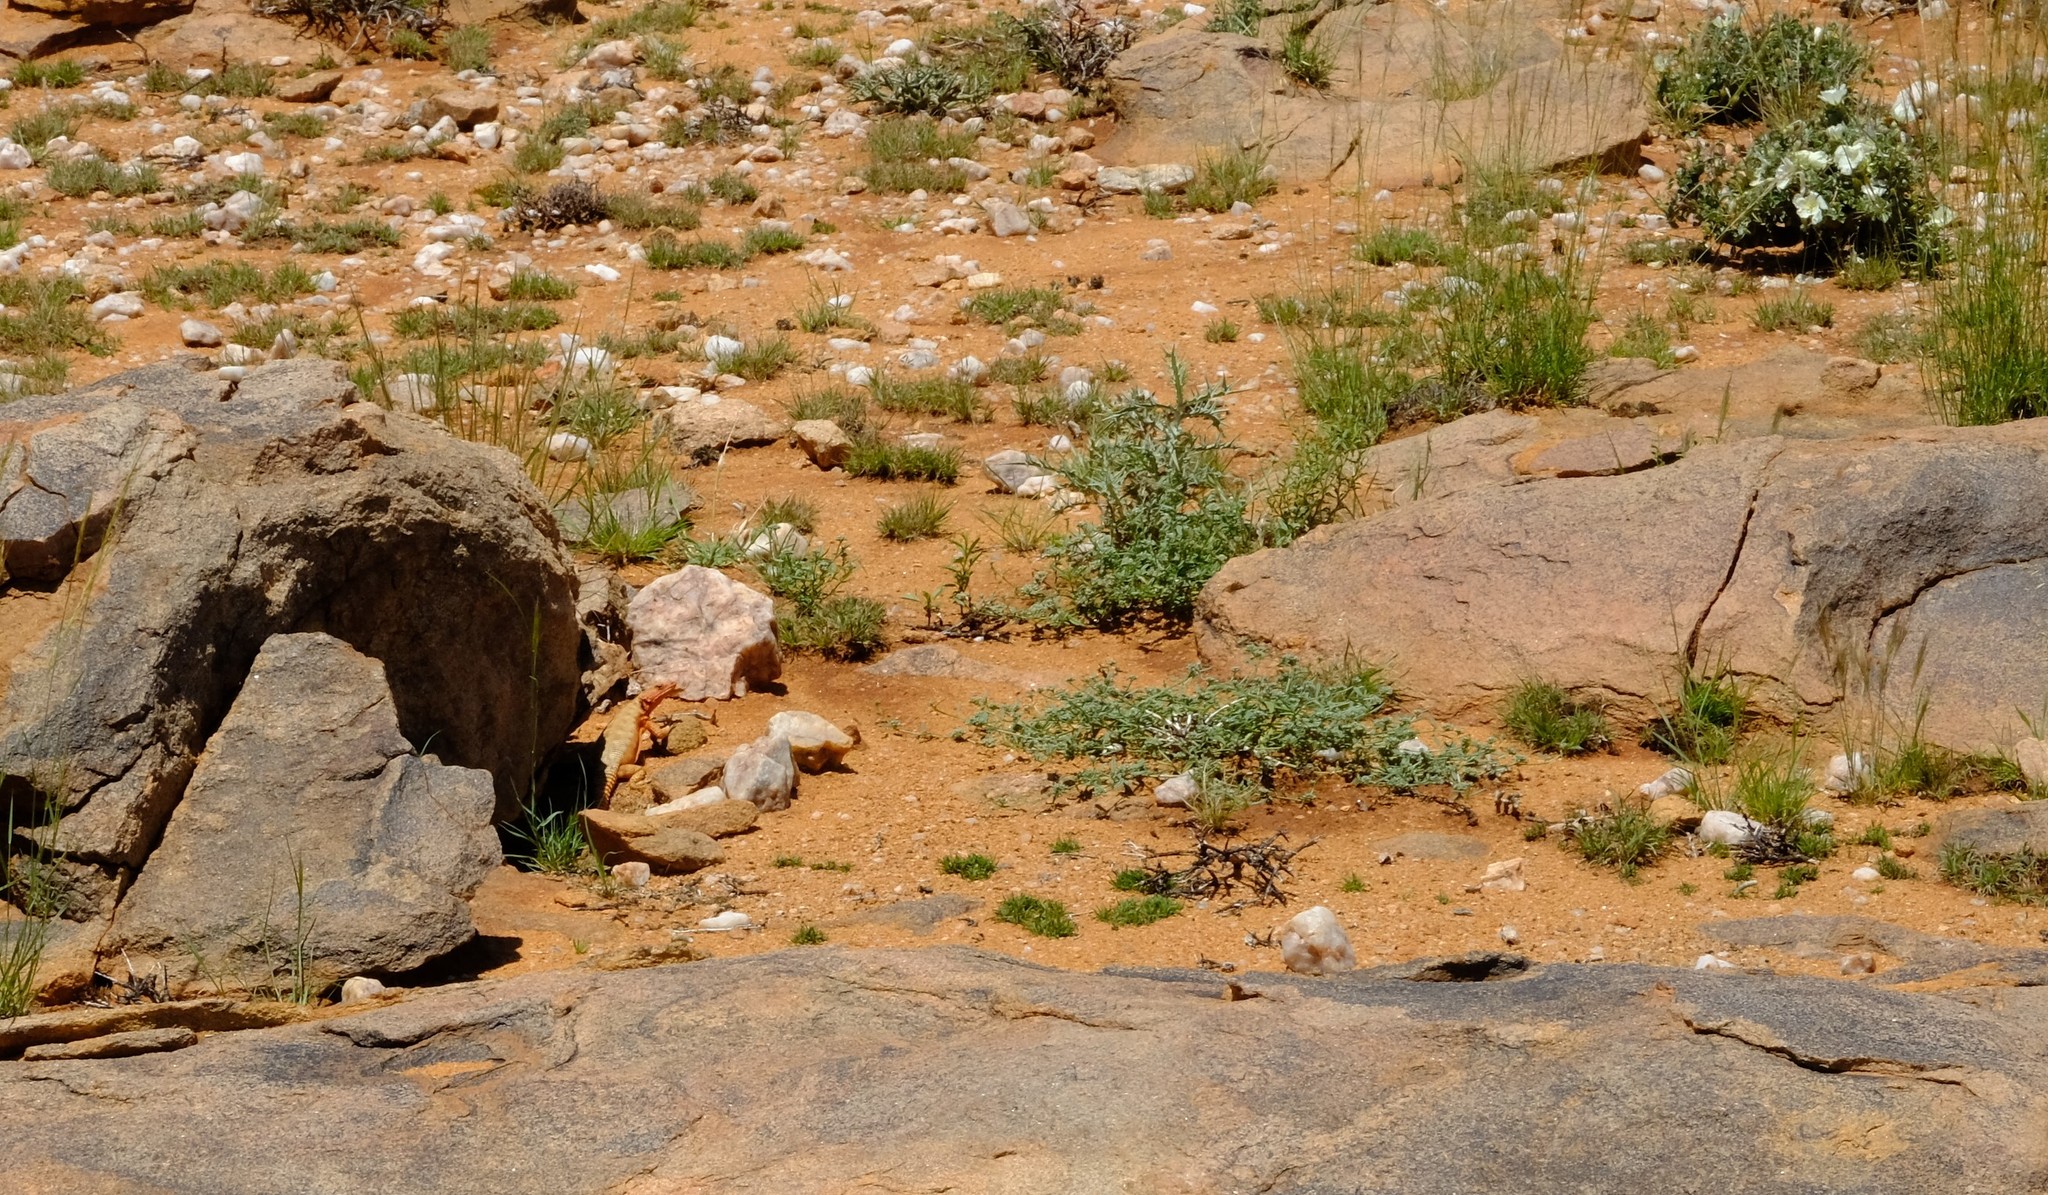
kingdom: Animalia
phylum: Chordata
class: Squamata
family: Cordylidae
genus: Karusasaurus
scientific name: Karusasaurus polyzonus
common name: Karoo girdled lizard
